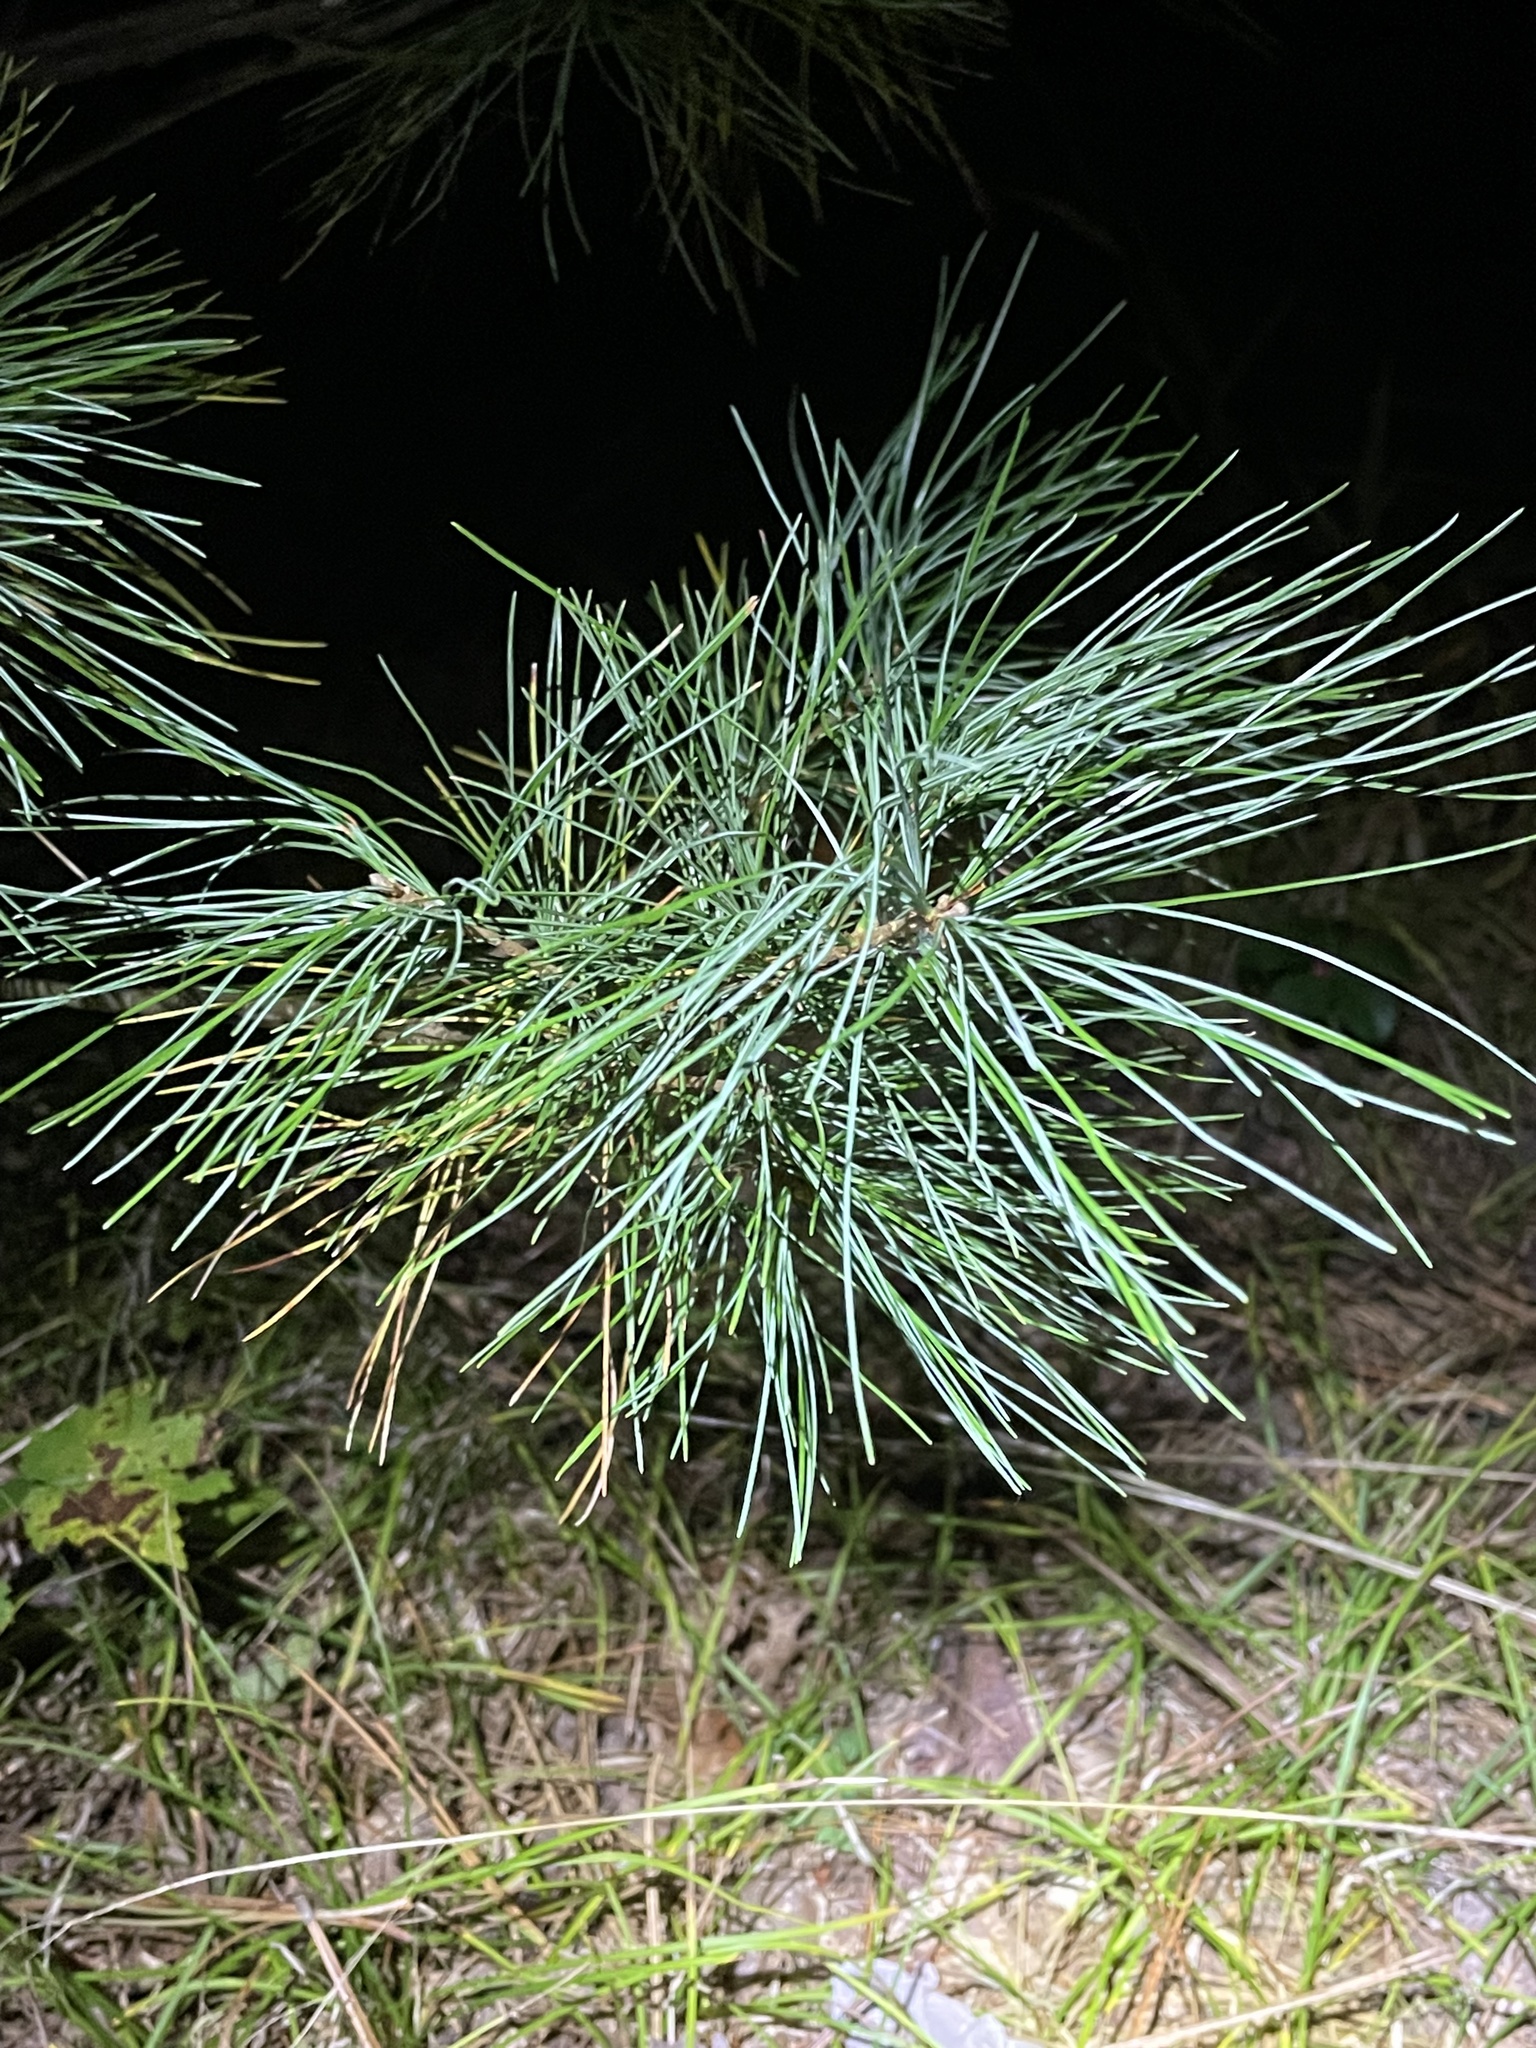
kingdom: Plantae
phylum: Tracheophyta
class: Pinopsida
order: Pinales
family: Pinaceae
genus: Pinus
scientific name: Pinus strobus
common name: Weymouth pine
